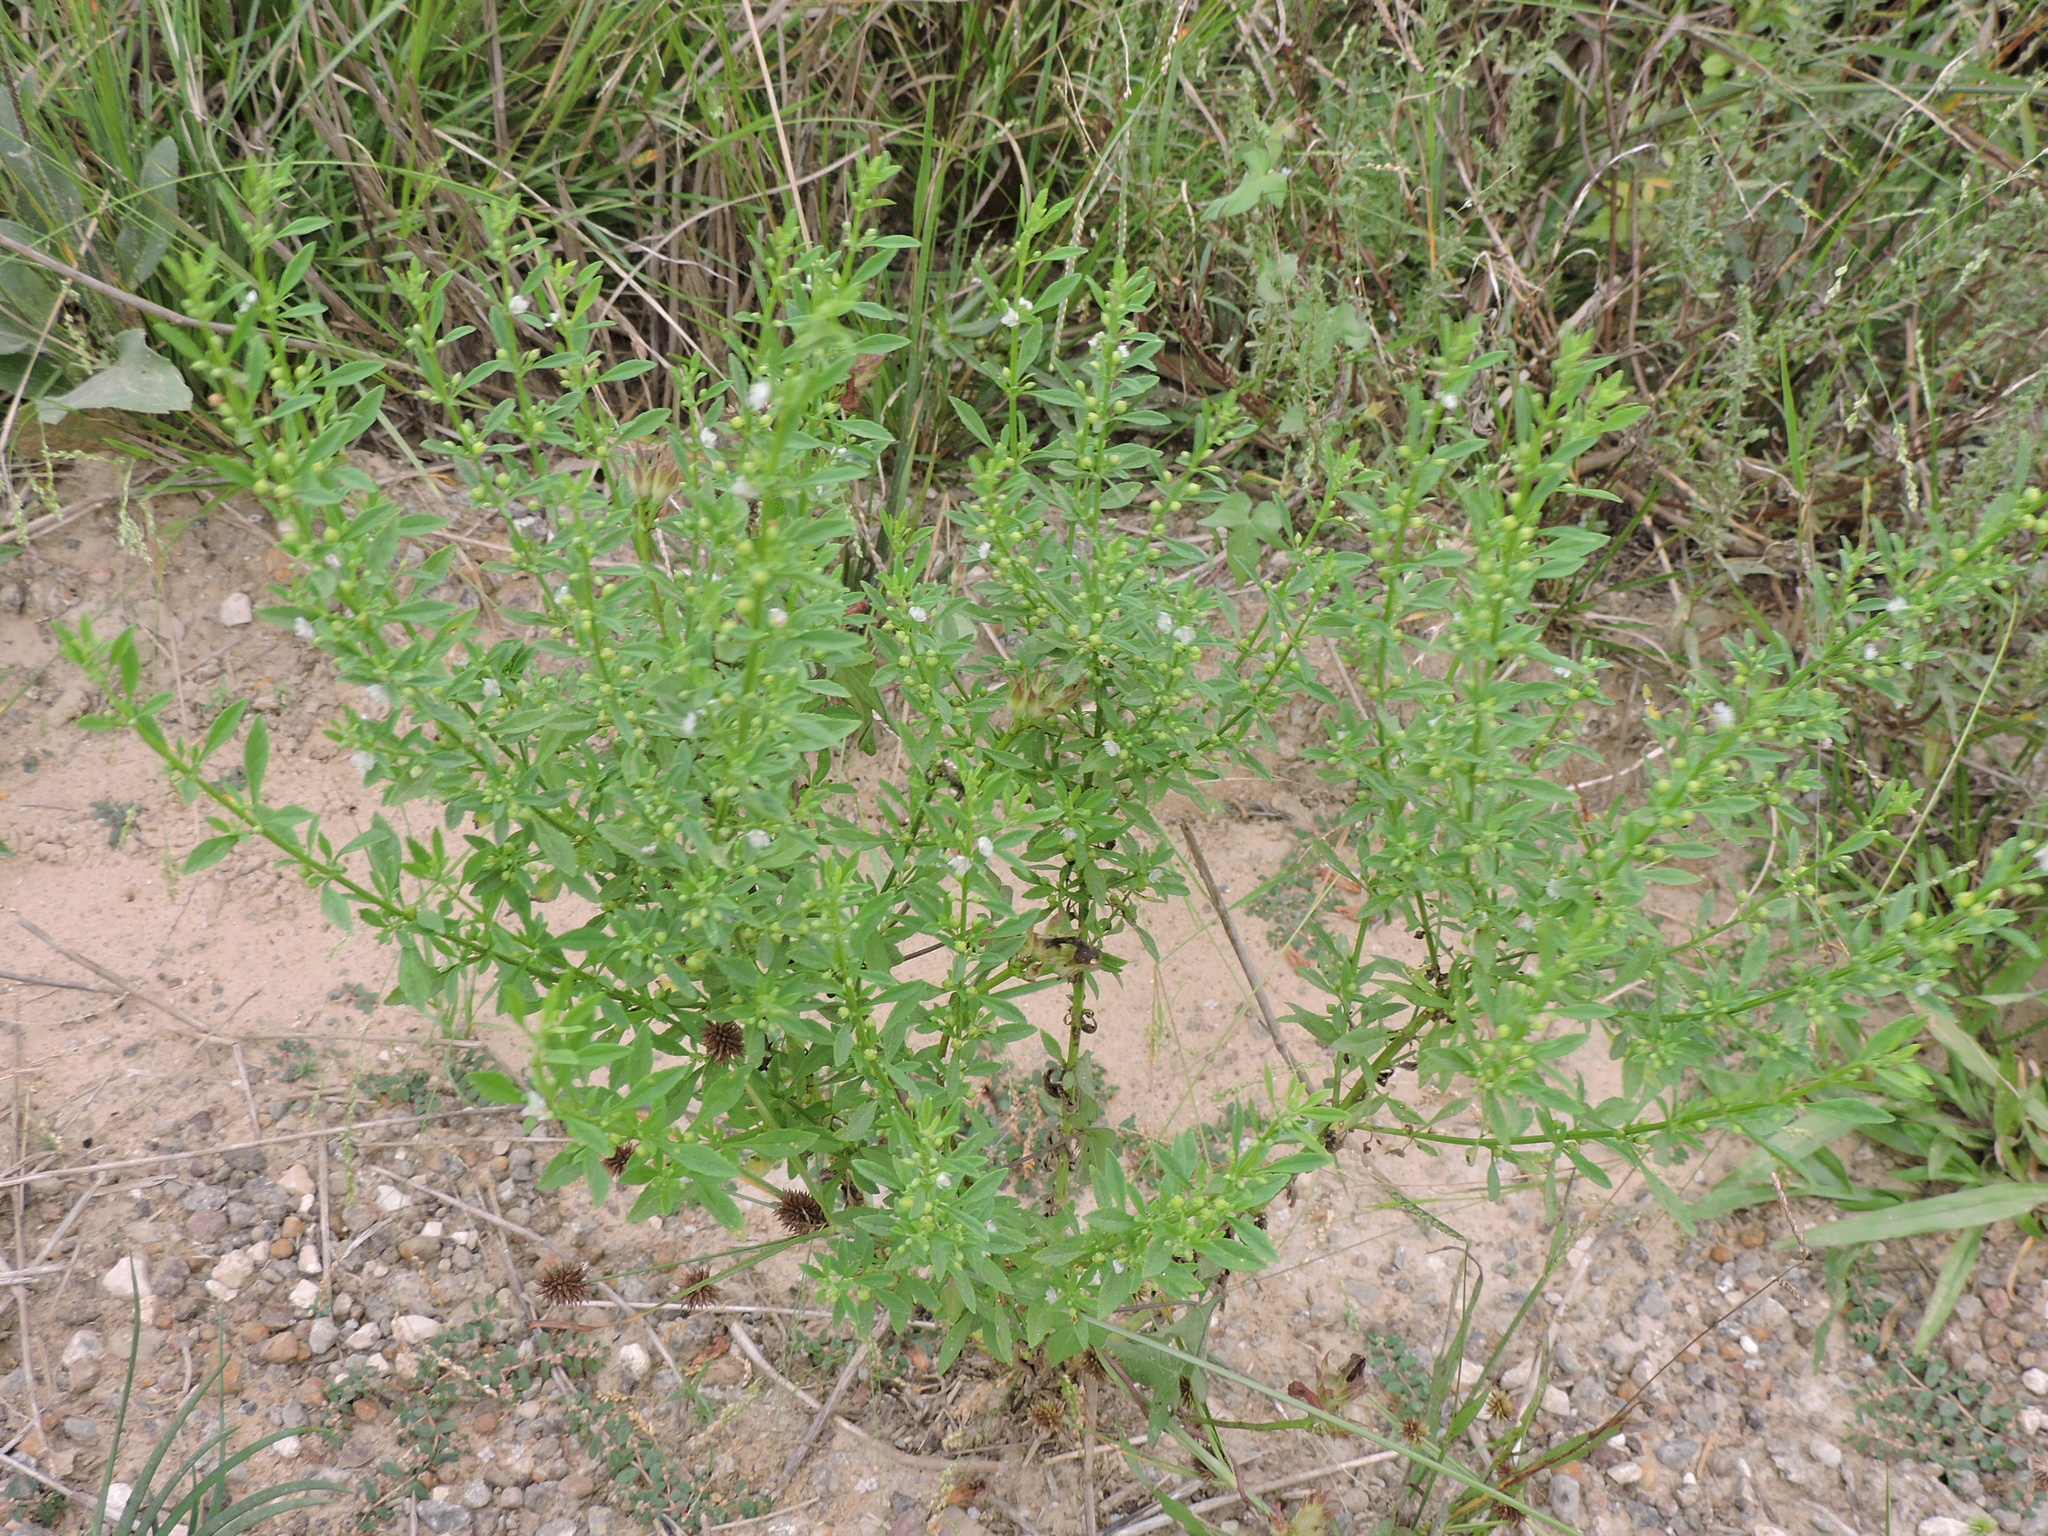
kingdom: Plantae
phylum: Tracheophyta
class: Magnoliopsida
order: Lamiales
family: Plantaginaceae
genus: Scoparia
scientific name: Scoparia dulcis
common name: Scoparia-weed
